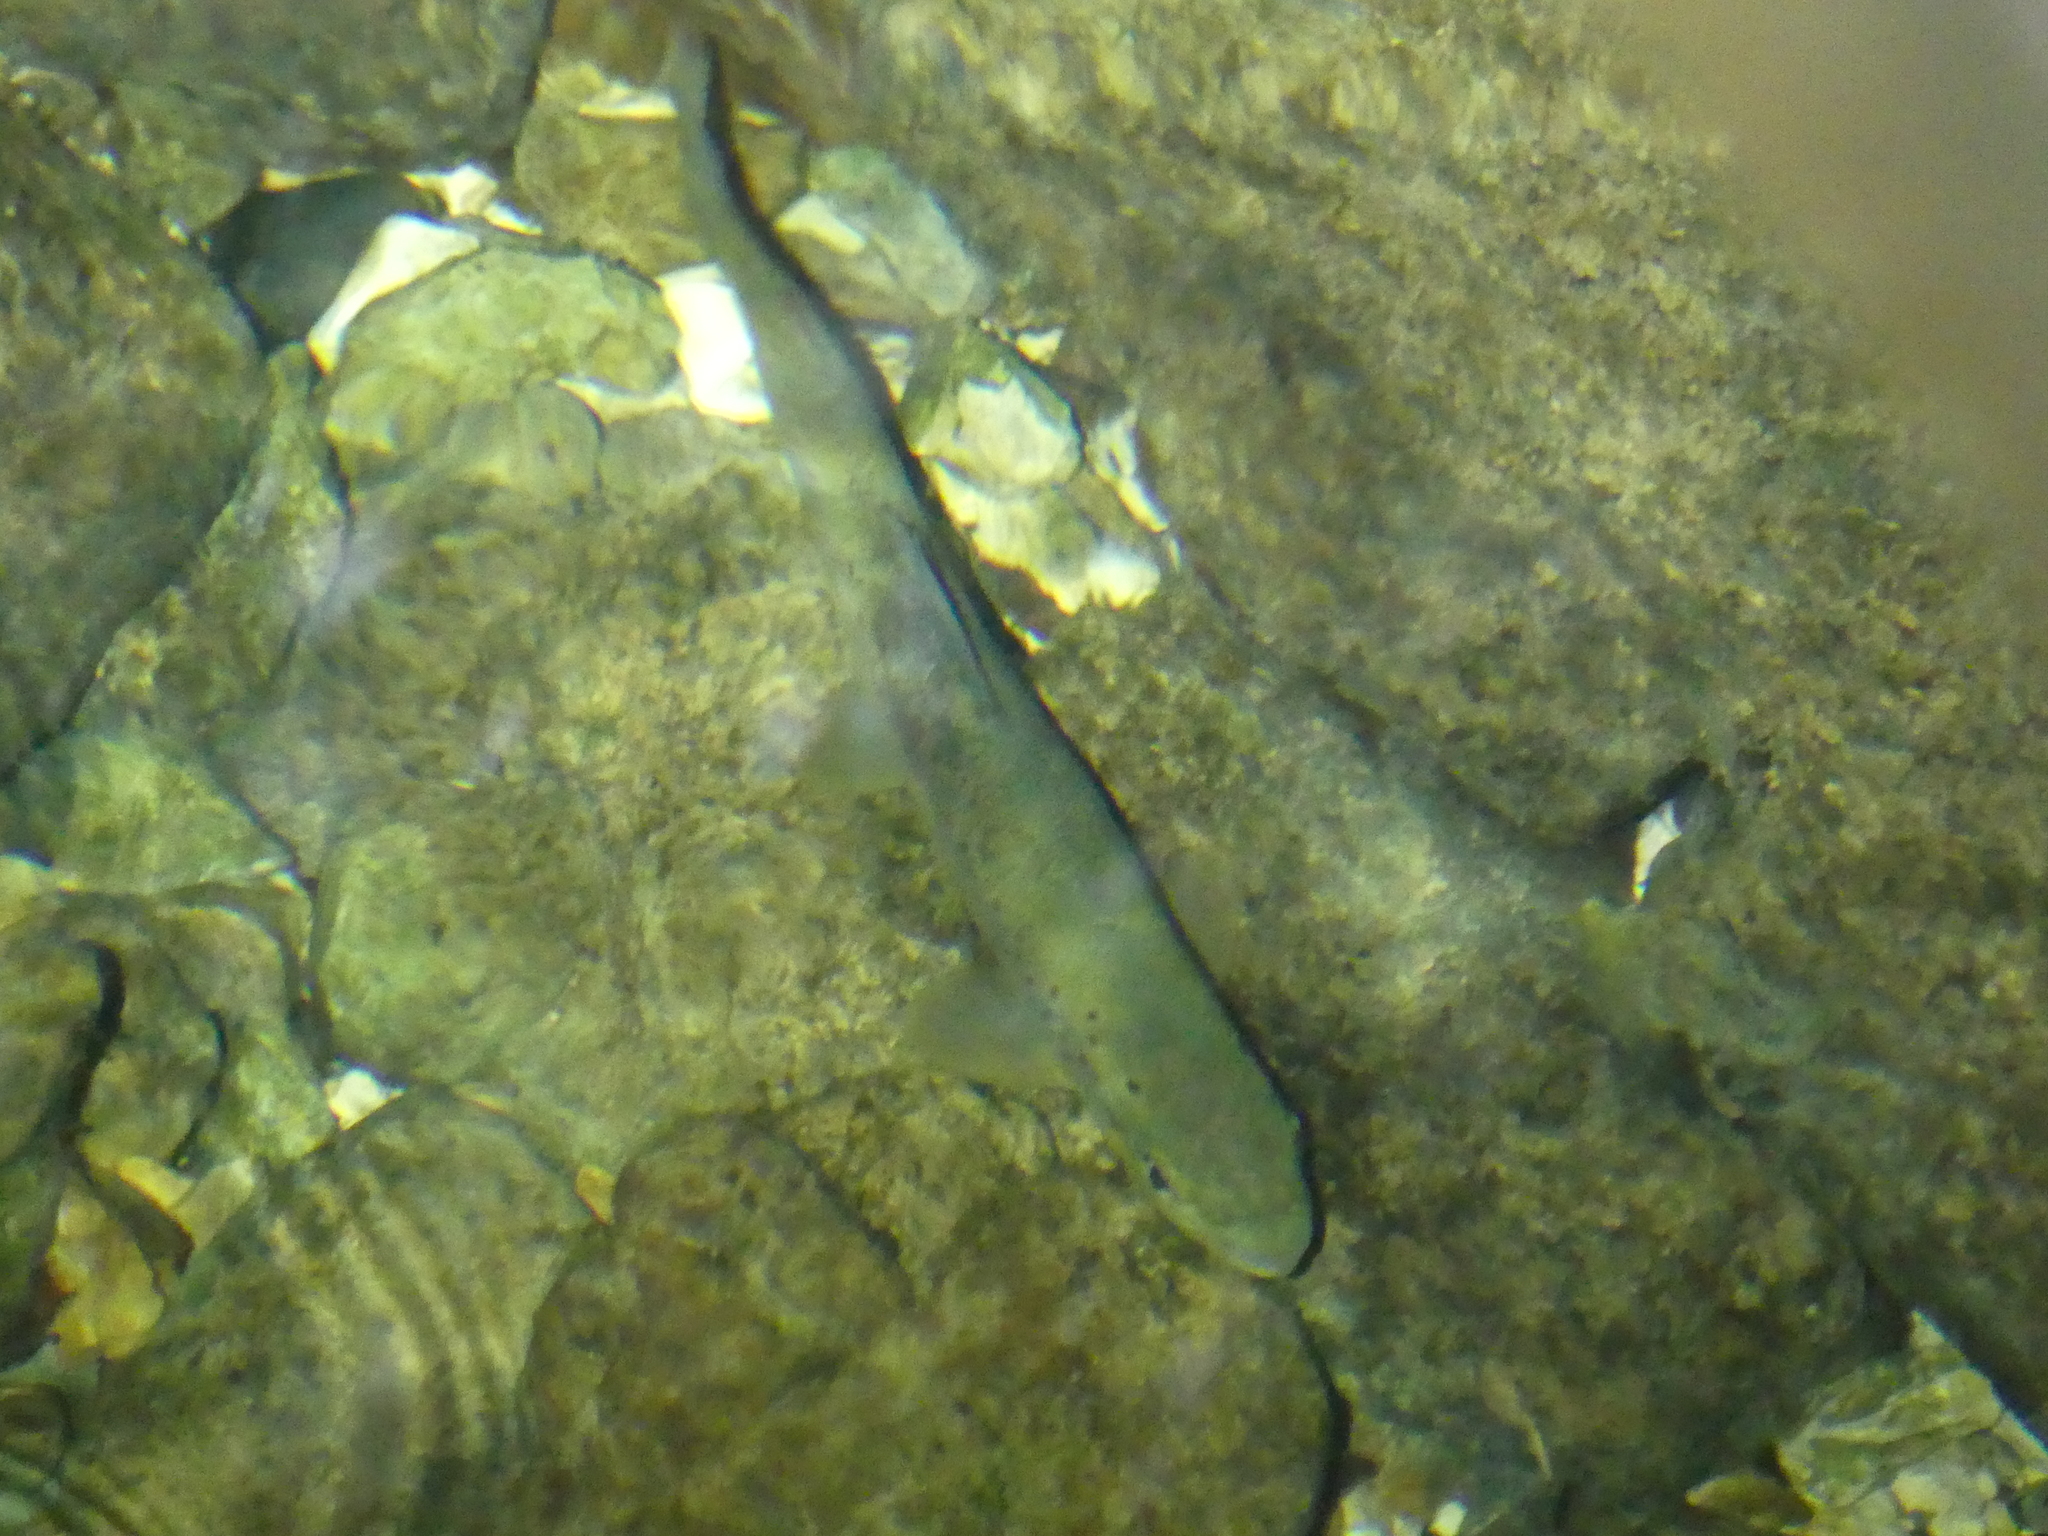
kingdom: Animalia
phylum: Chordata
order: Salmoniformes
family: Salmonidae
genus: Salmo
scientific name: Salmo trutta
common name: Brown trout
